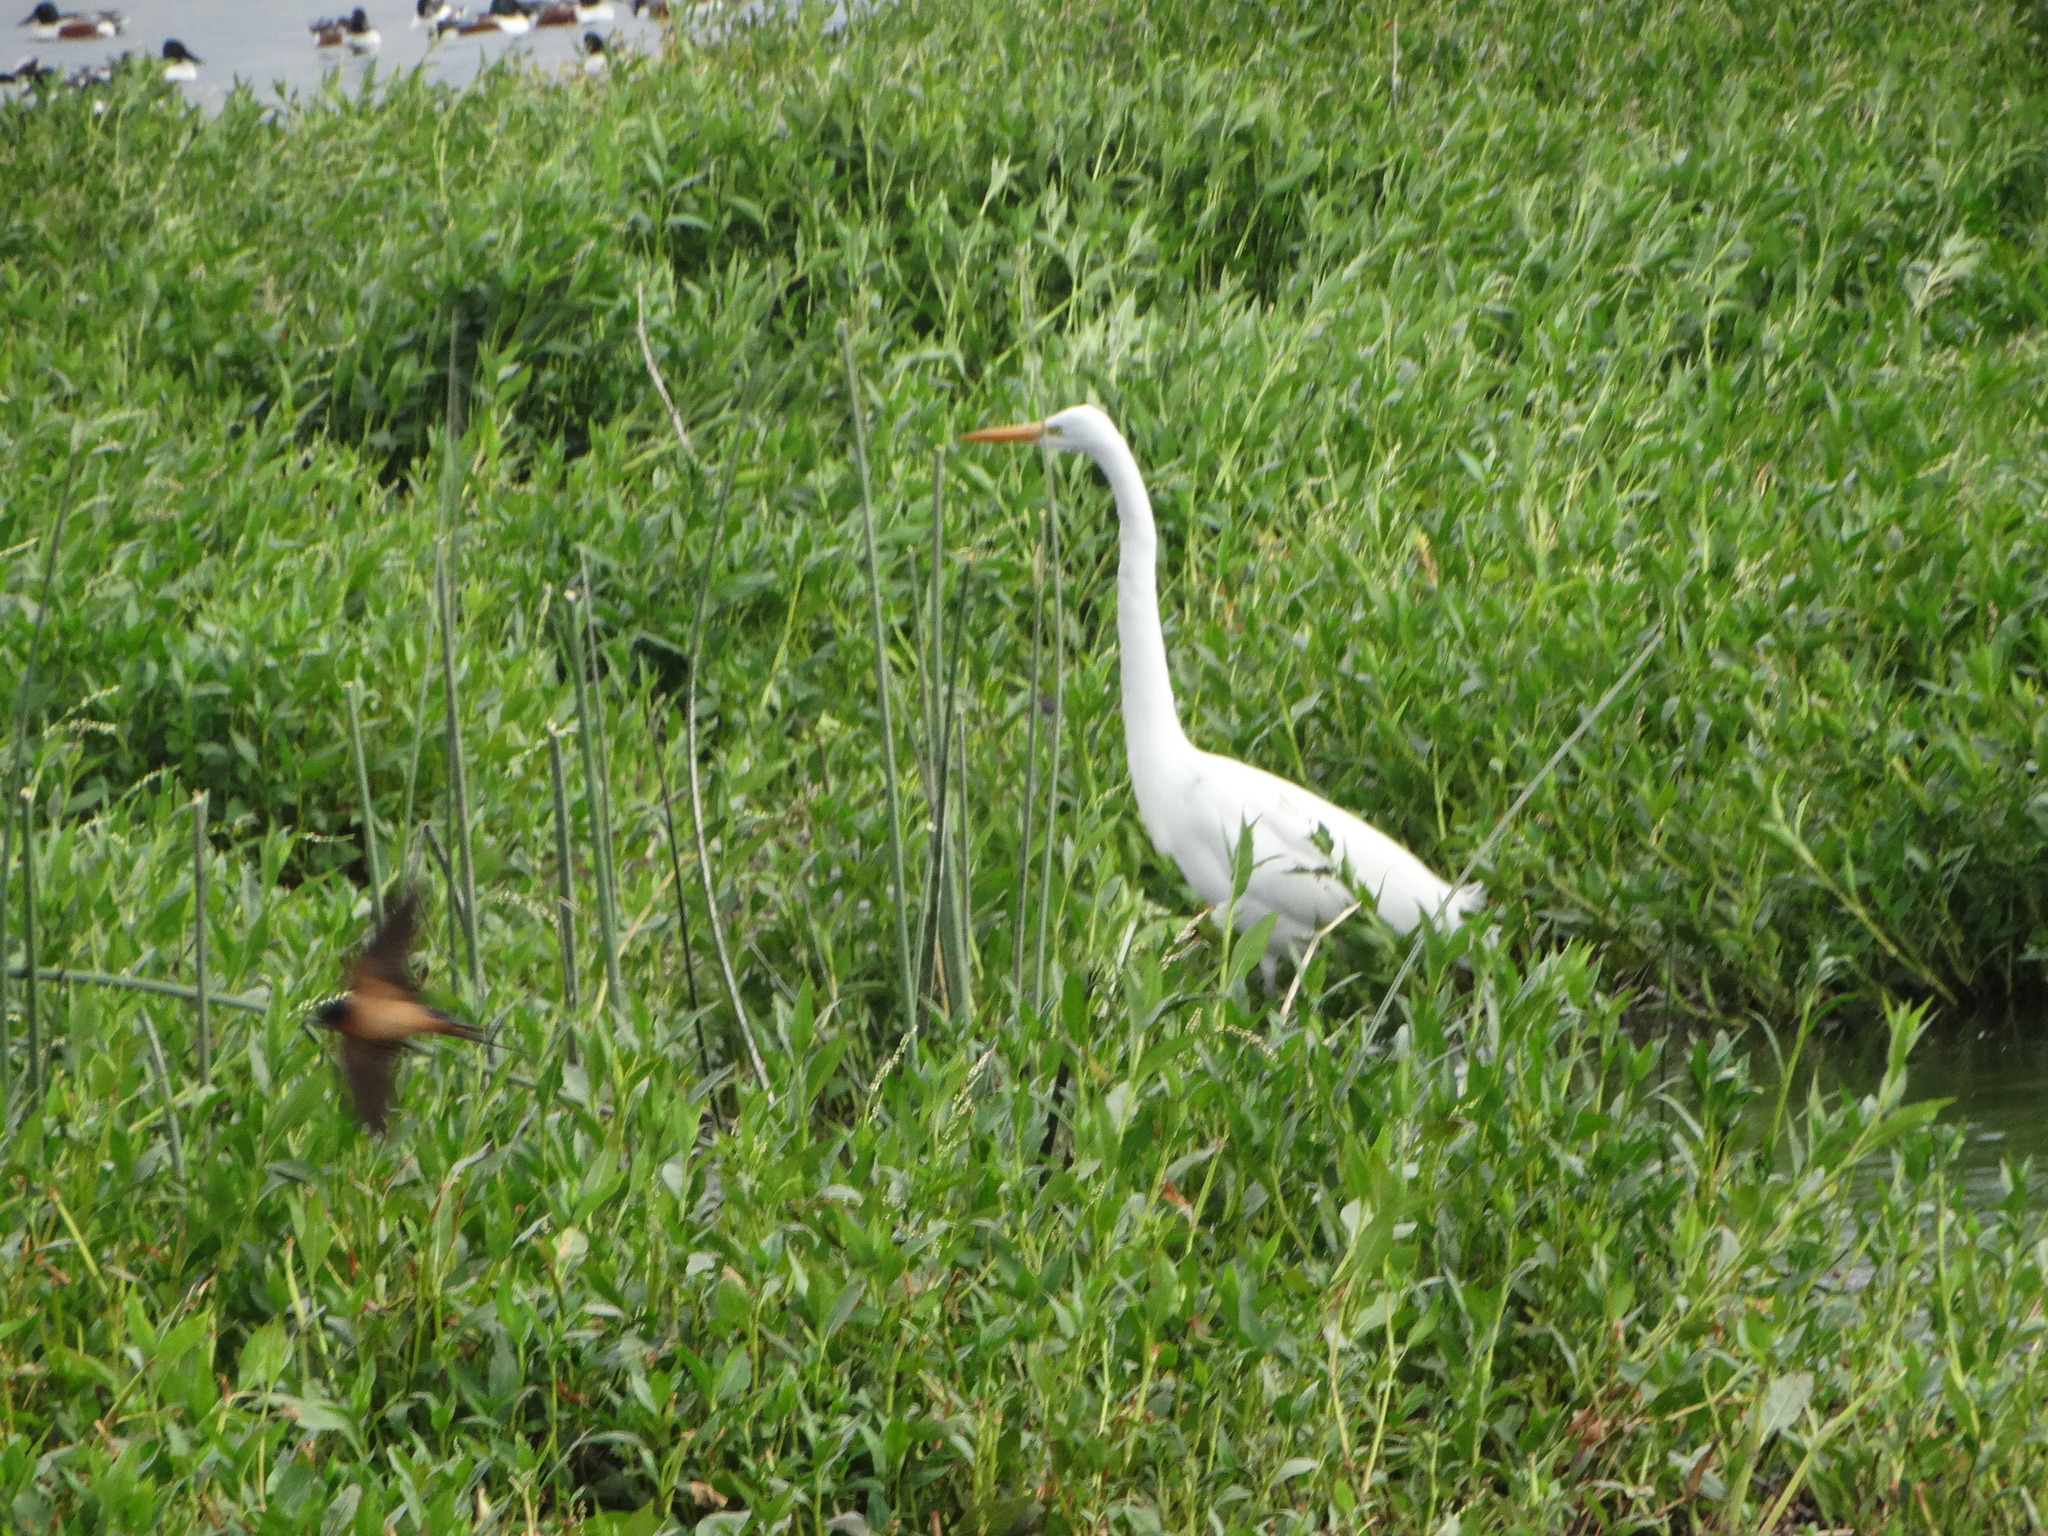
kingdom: Animalia
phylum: Chordata
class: Aves
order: Pelecaniformes
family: Ardeidae
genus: Ardea
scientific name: Ardea alba
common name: Great egret
